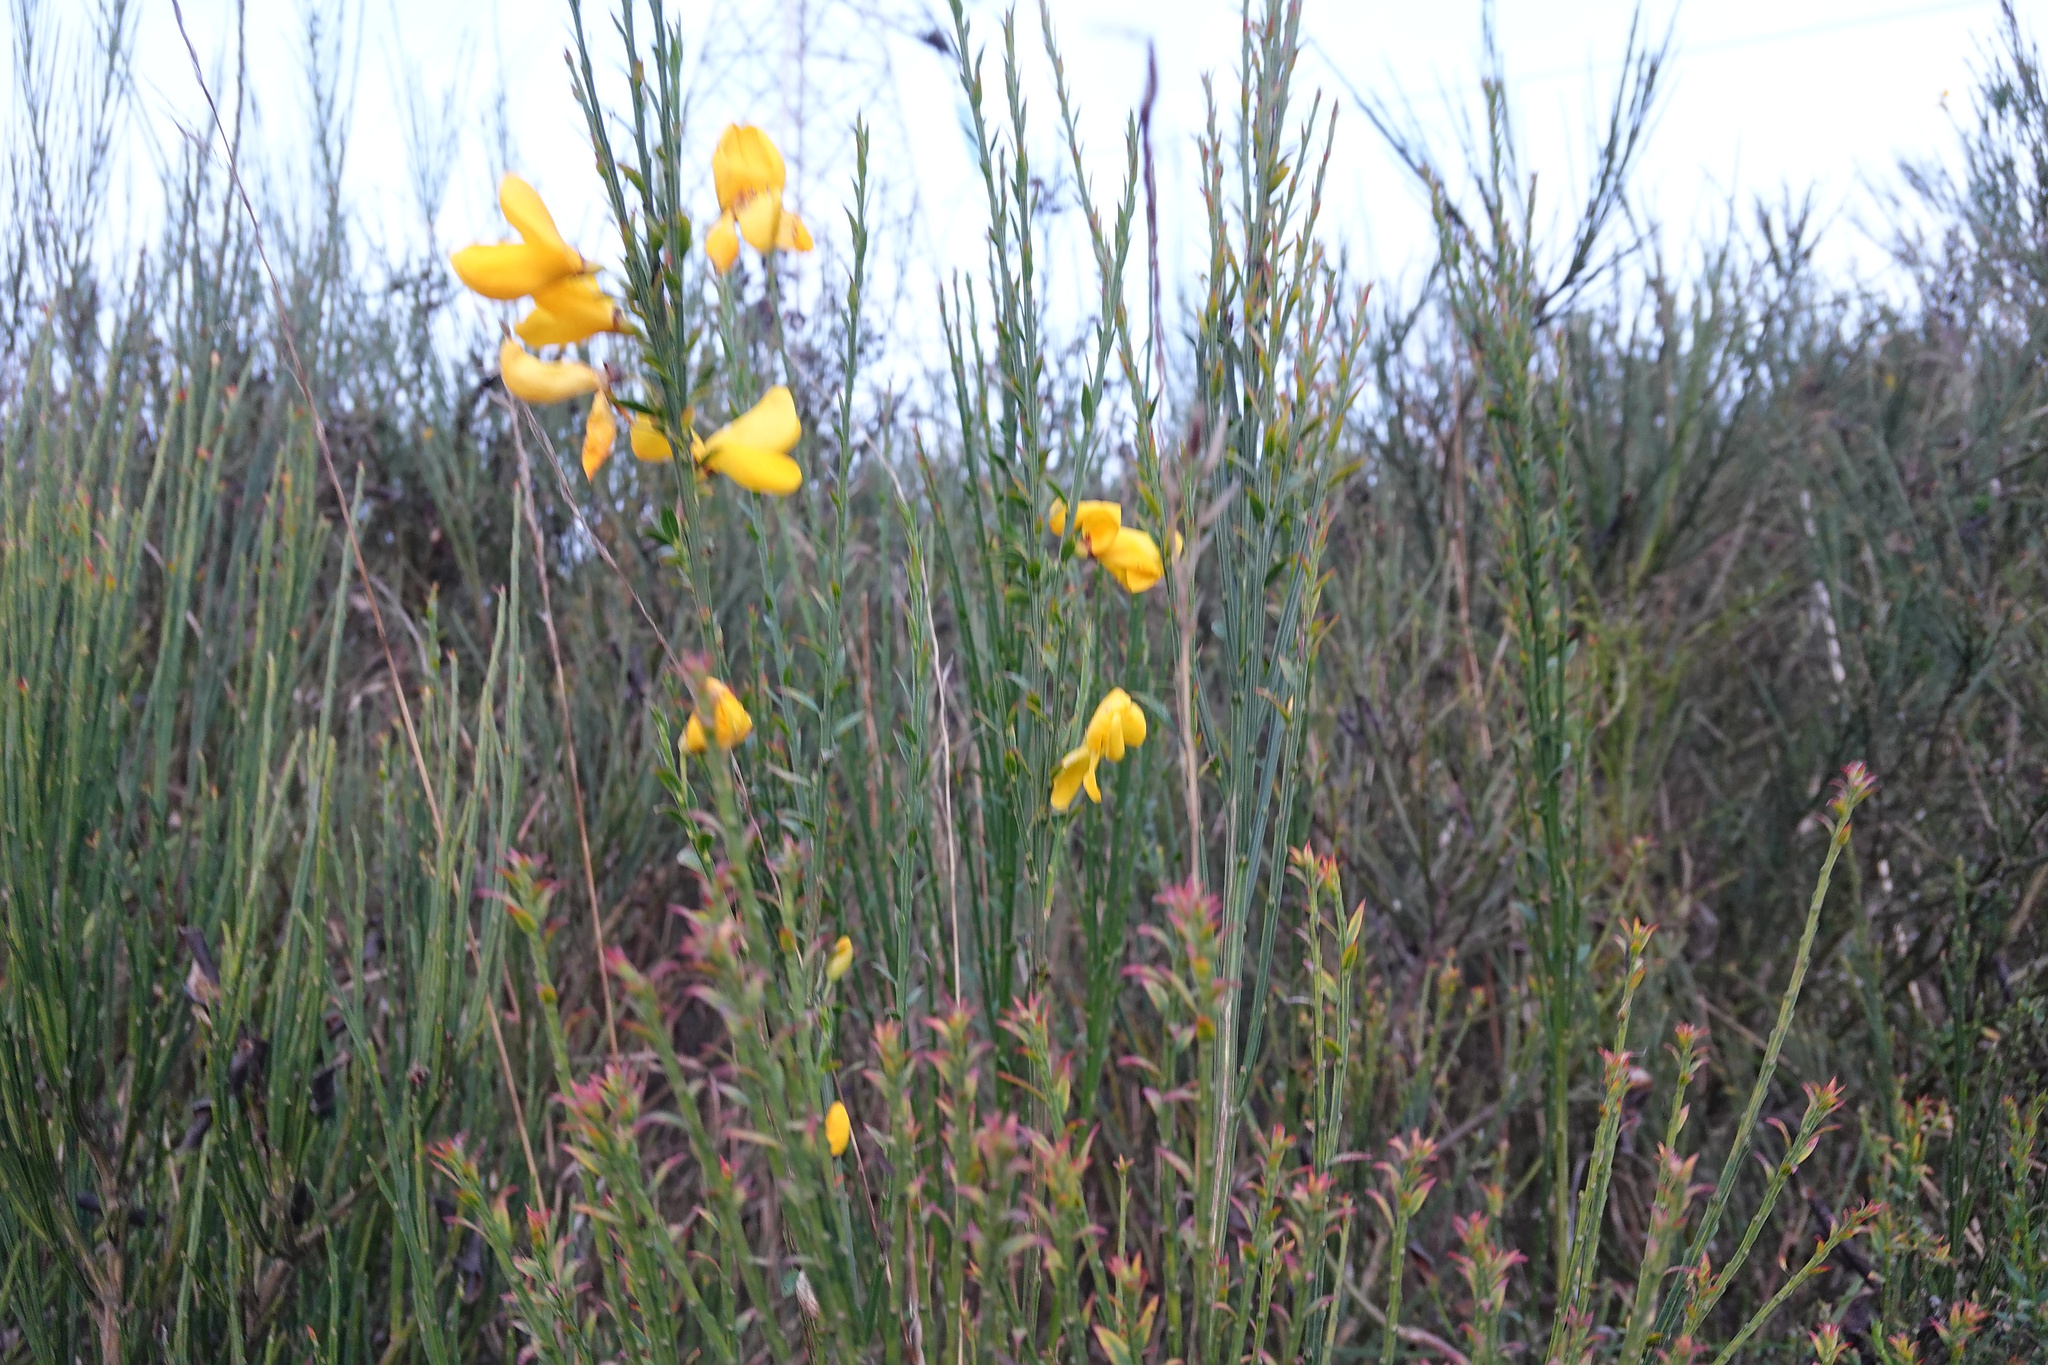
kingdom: Plantae
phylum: Tracheophyta
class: Magnoliopsida
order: Fabales
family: Fabaceae
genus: Cytisus
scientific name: Cytisus scoparius
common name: Scotch broom
